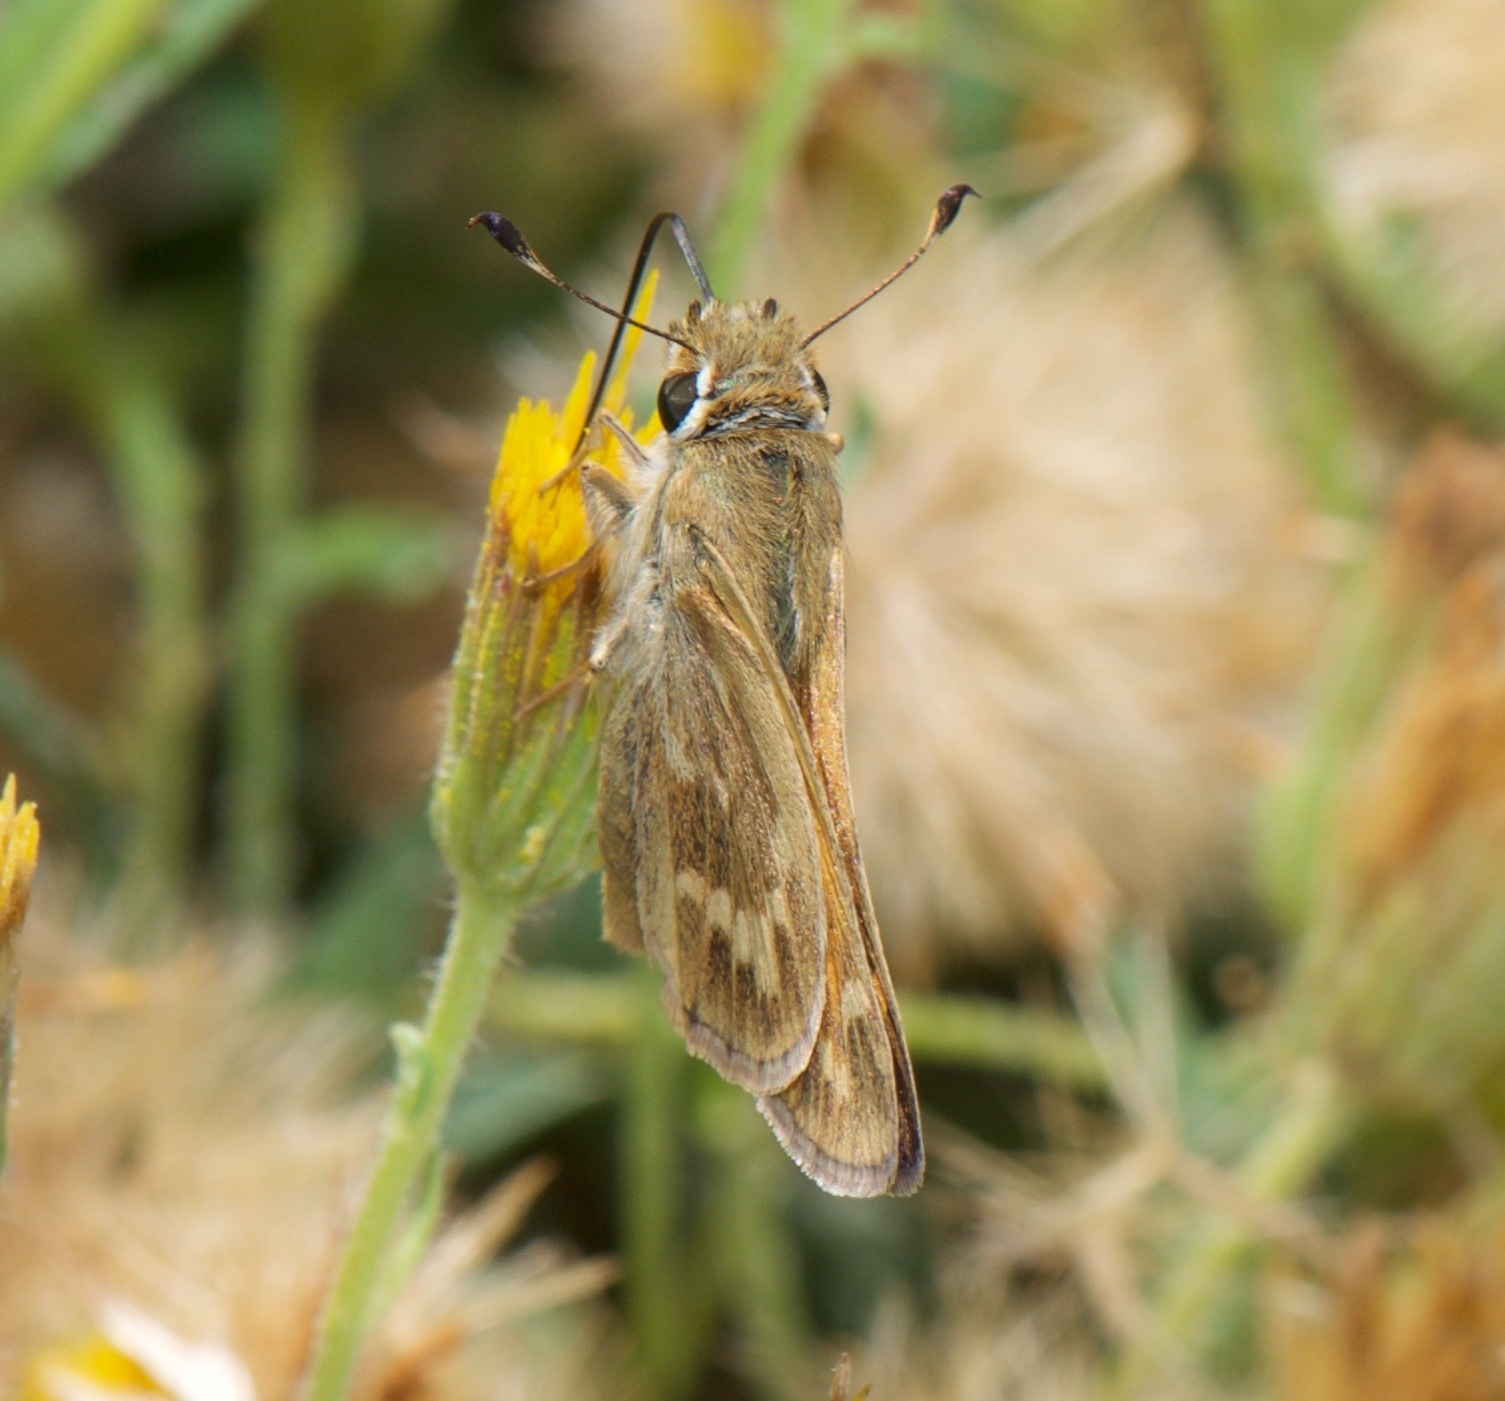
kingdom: Animalia
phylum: Arthropoda
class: Insecta
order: Lepidoptera
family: Hesperiidae
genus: Atalopedes
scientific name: Atalopedes campestris
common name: Sachem
